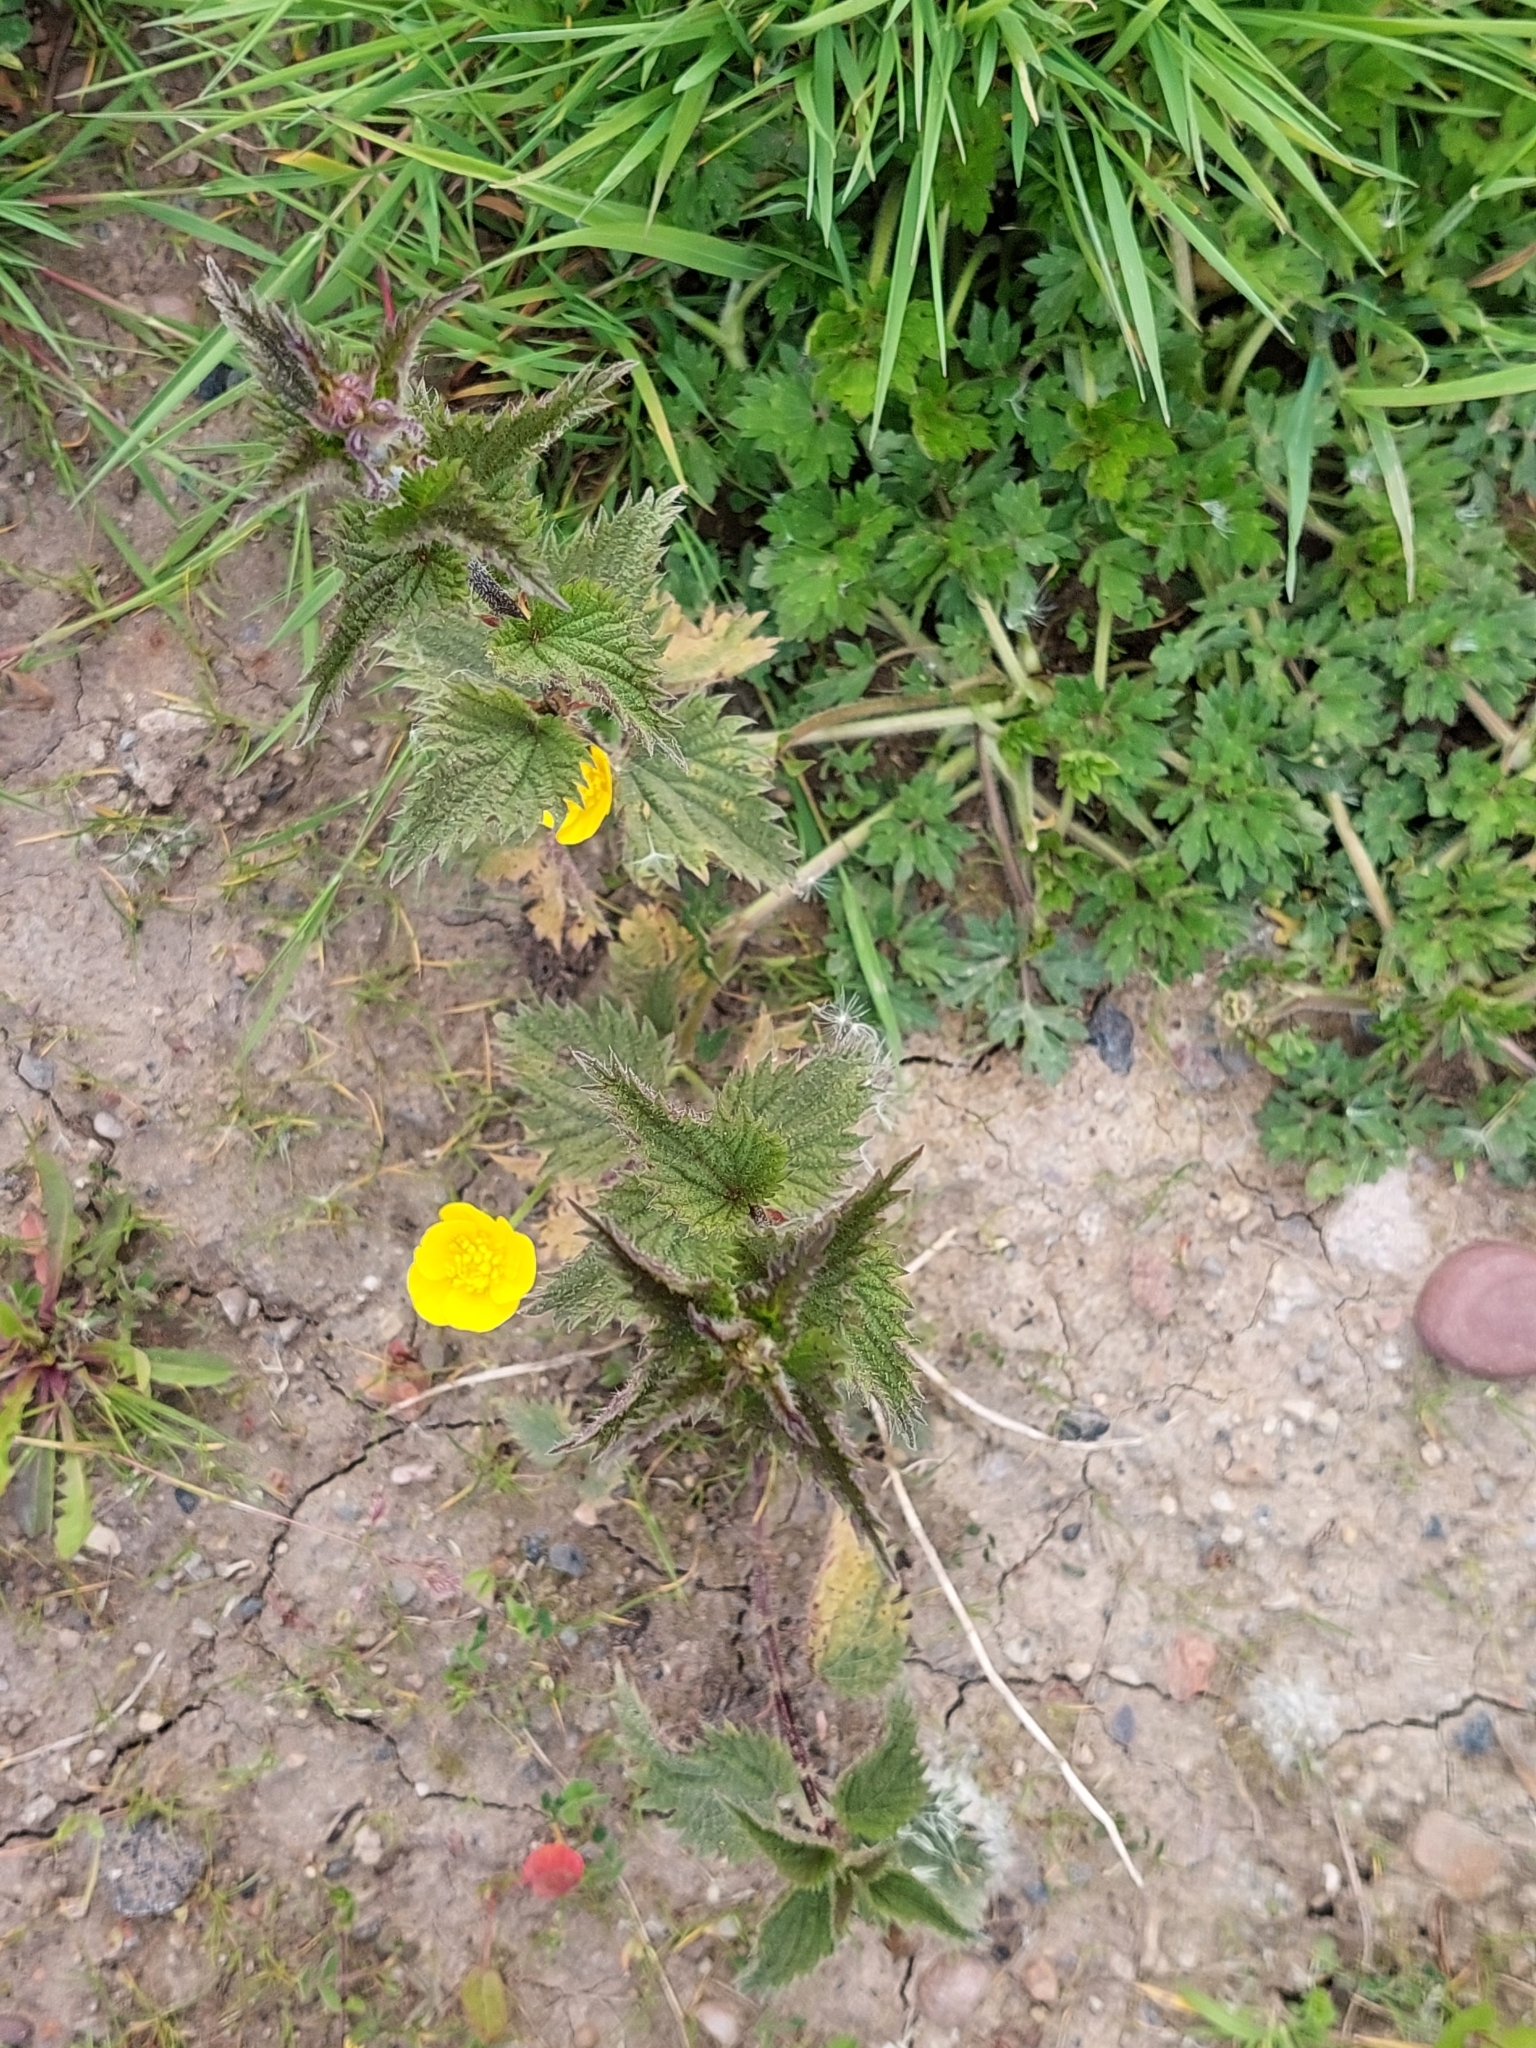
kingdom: Plantae
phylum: Tracheophyta
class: Magnoliopsida
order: Rosales
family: Urticaceae
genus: Urtica
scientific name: Urtica dioica
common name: Common nettle
